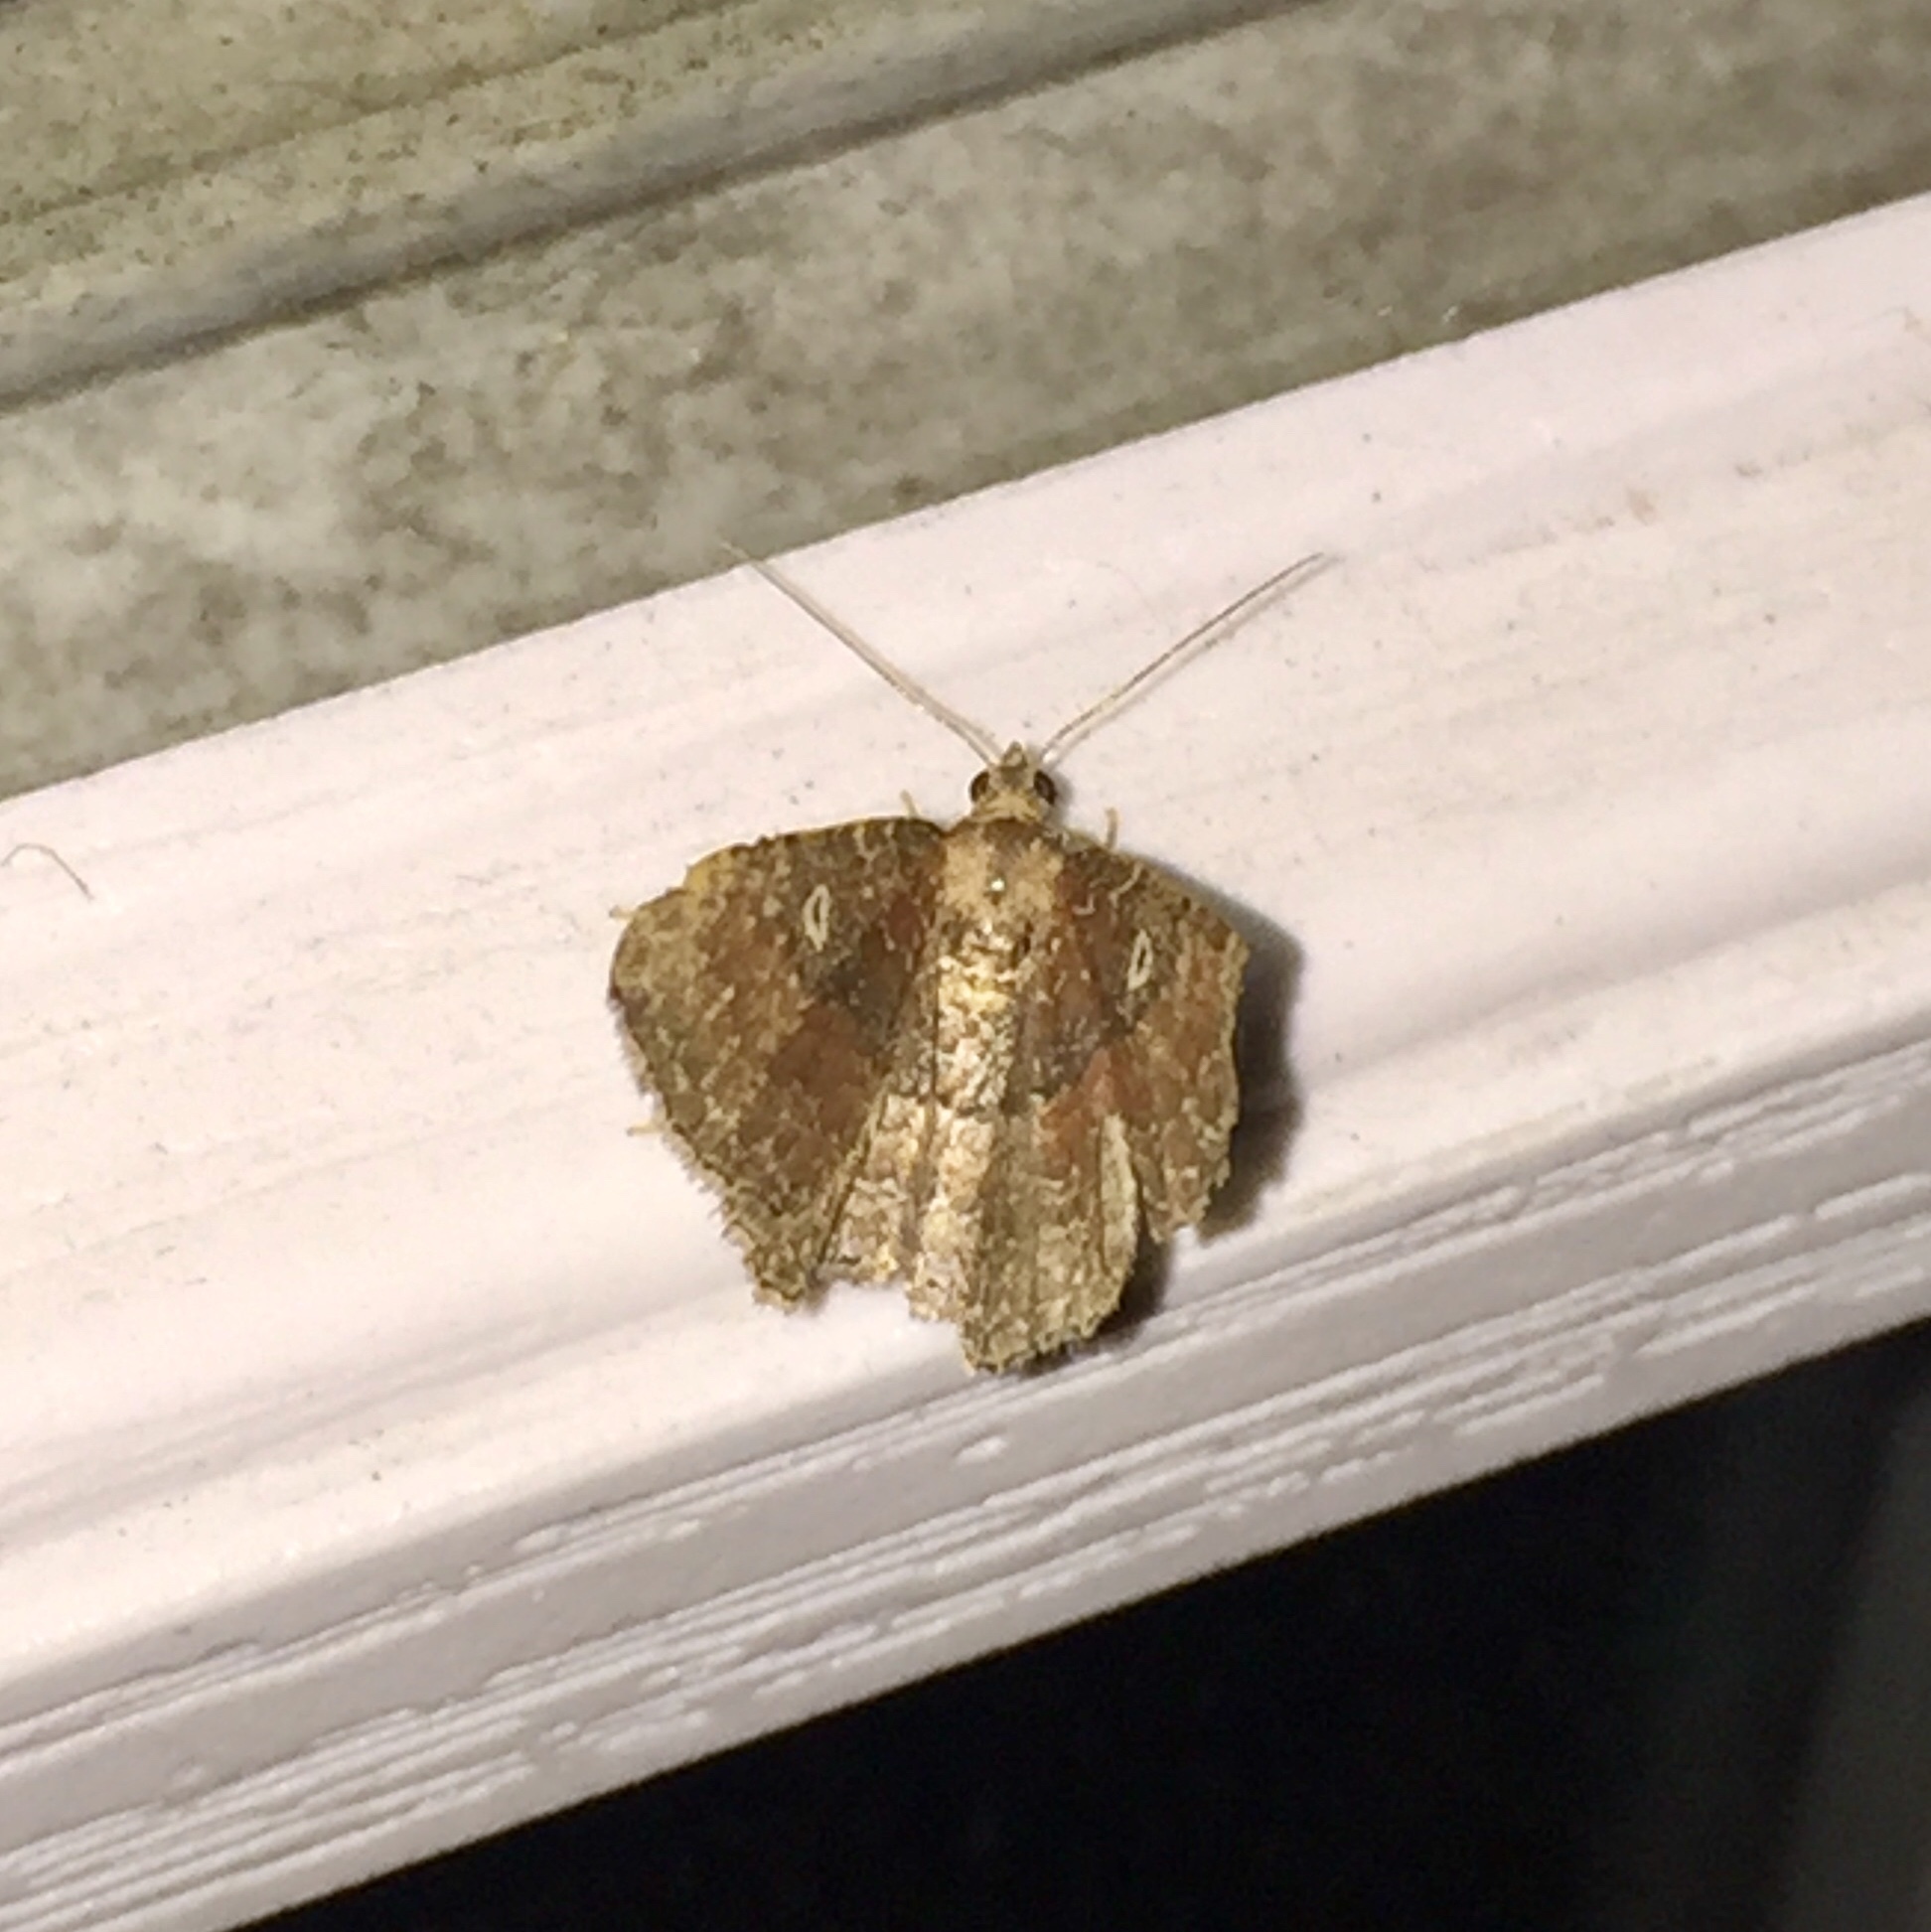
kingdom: Animalia
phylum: Arthropoda
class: Insecta
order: Lepidoptera
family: Geometridae
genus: Orthonama
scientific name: Orthonama obstipata
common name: The gem
